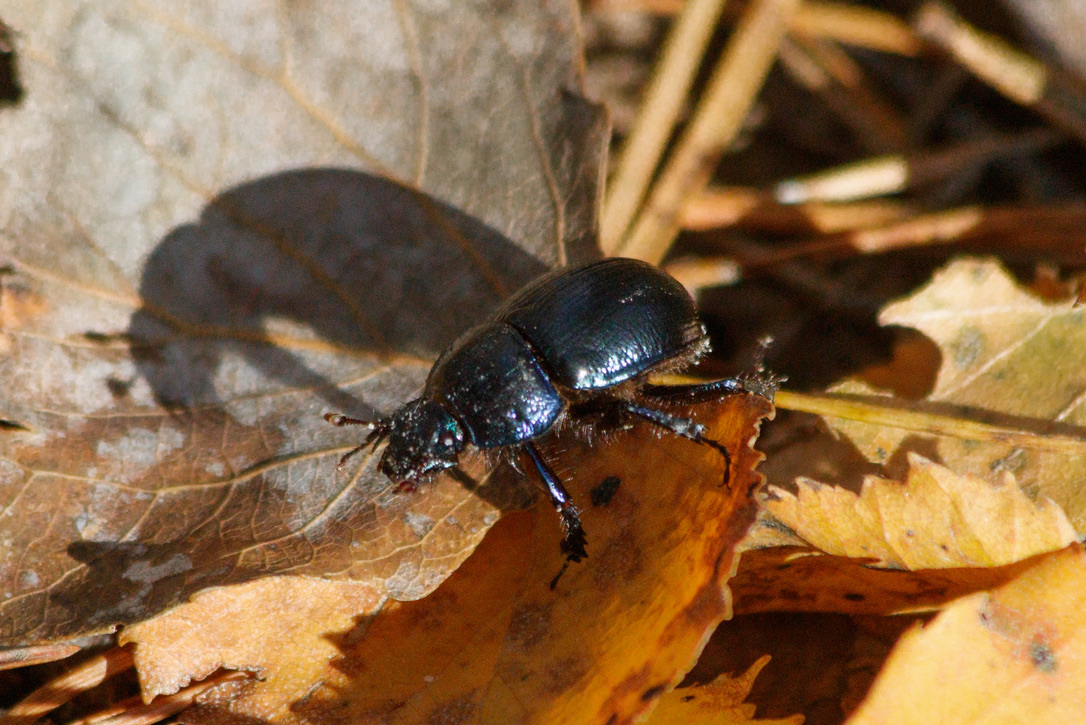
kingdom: Animalia
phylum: Arthropoda
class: Insecta
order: Coleoptera
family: Geotrupidae
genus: Anoplotrupes
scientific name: Anoplotrupes stercorosus
